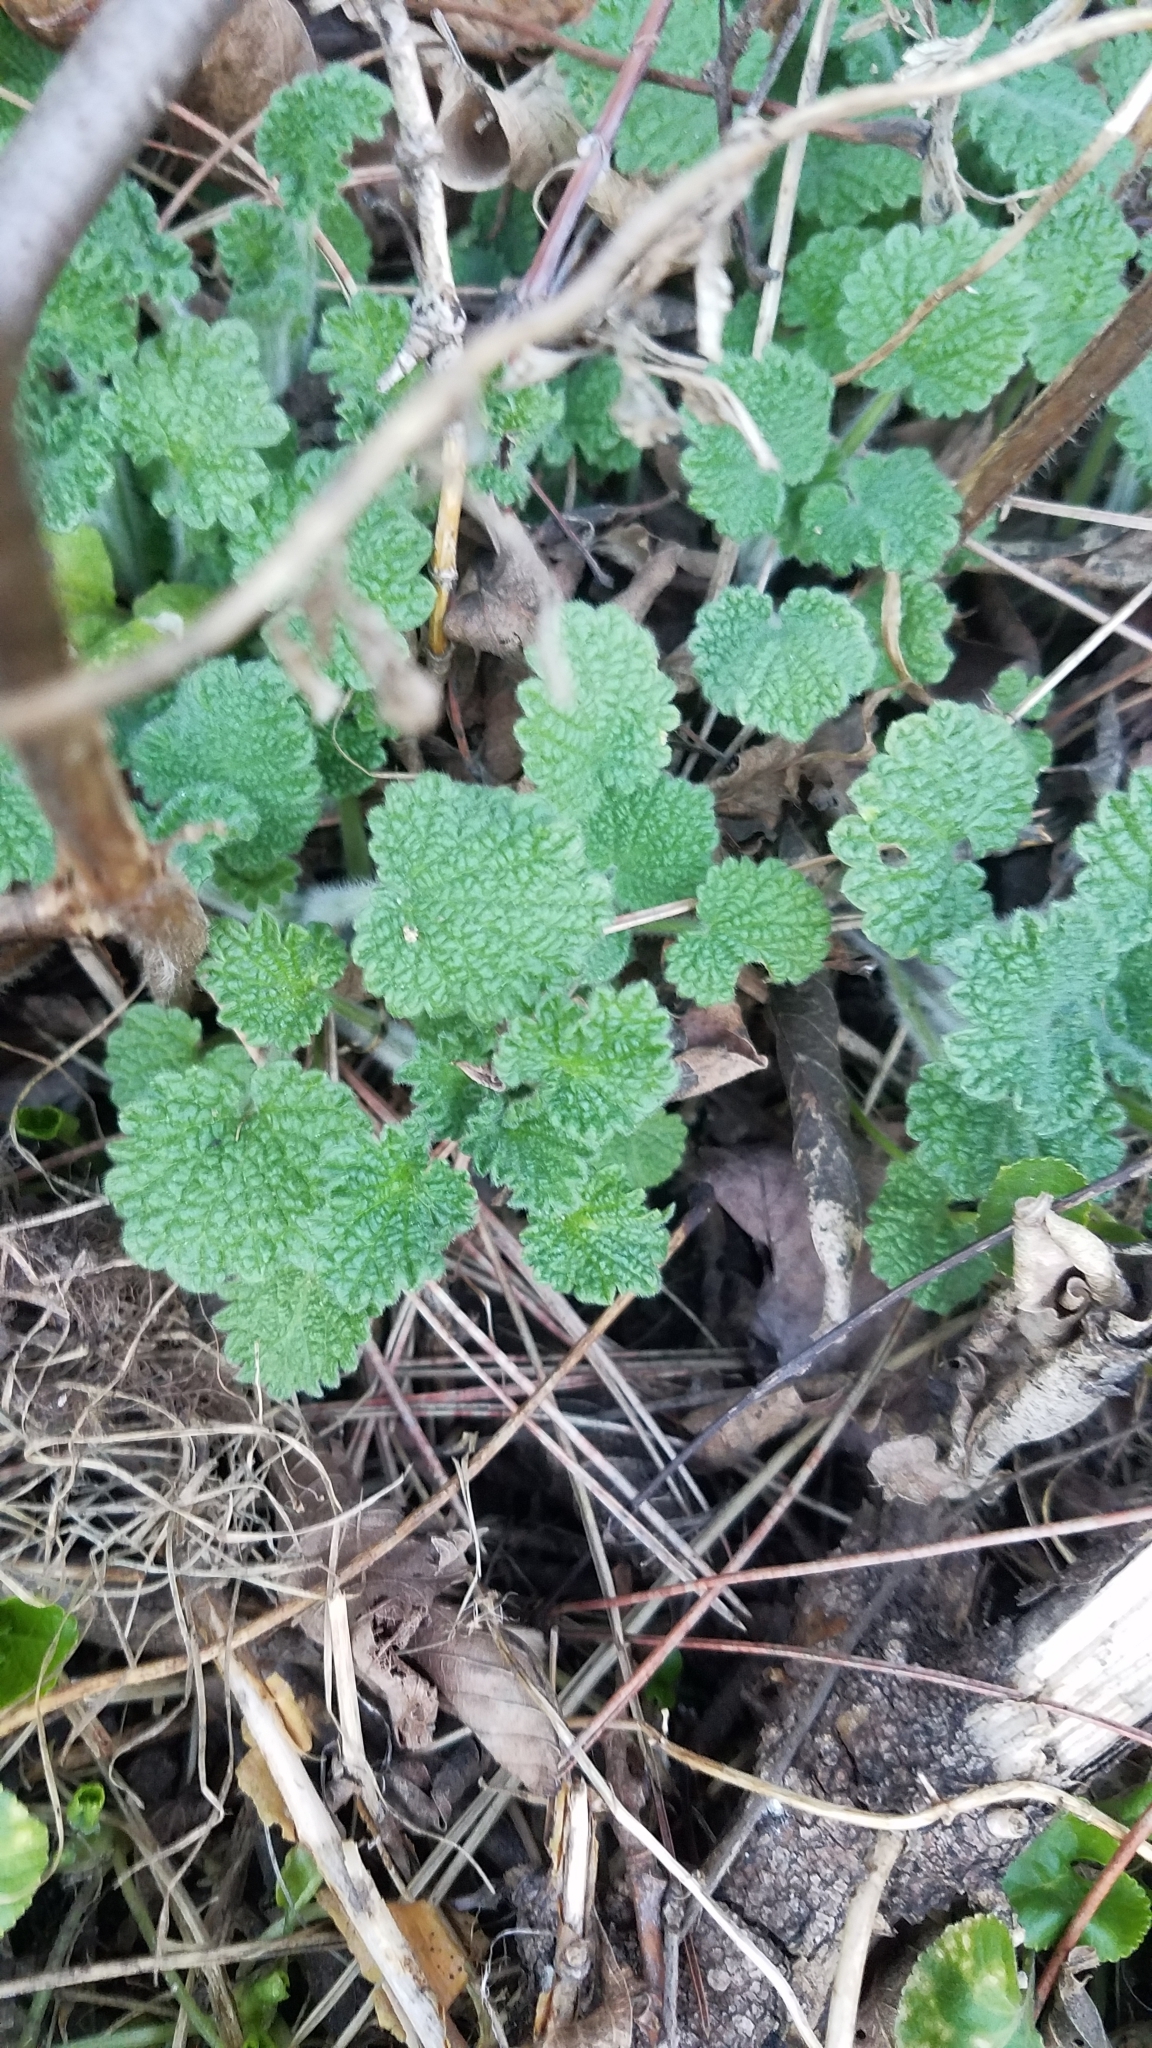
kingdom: Plantae
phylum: Tracheophyta
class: Magnoliopsida
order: Lamiales
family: Lamiaceae
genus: Leonurus
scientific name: Leonurus cardiaca
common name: Motherwort
